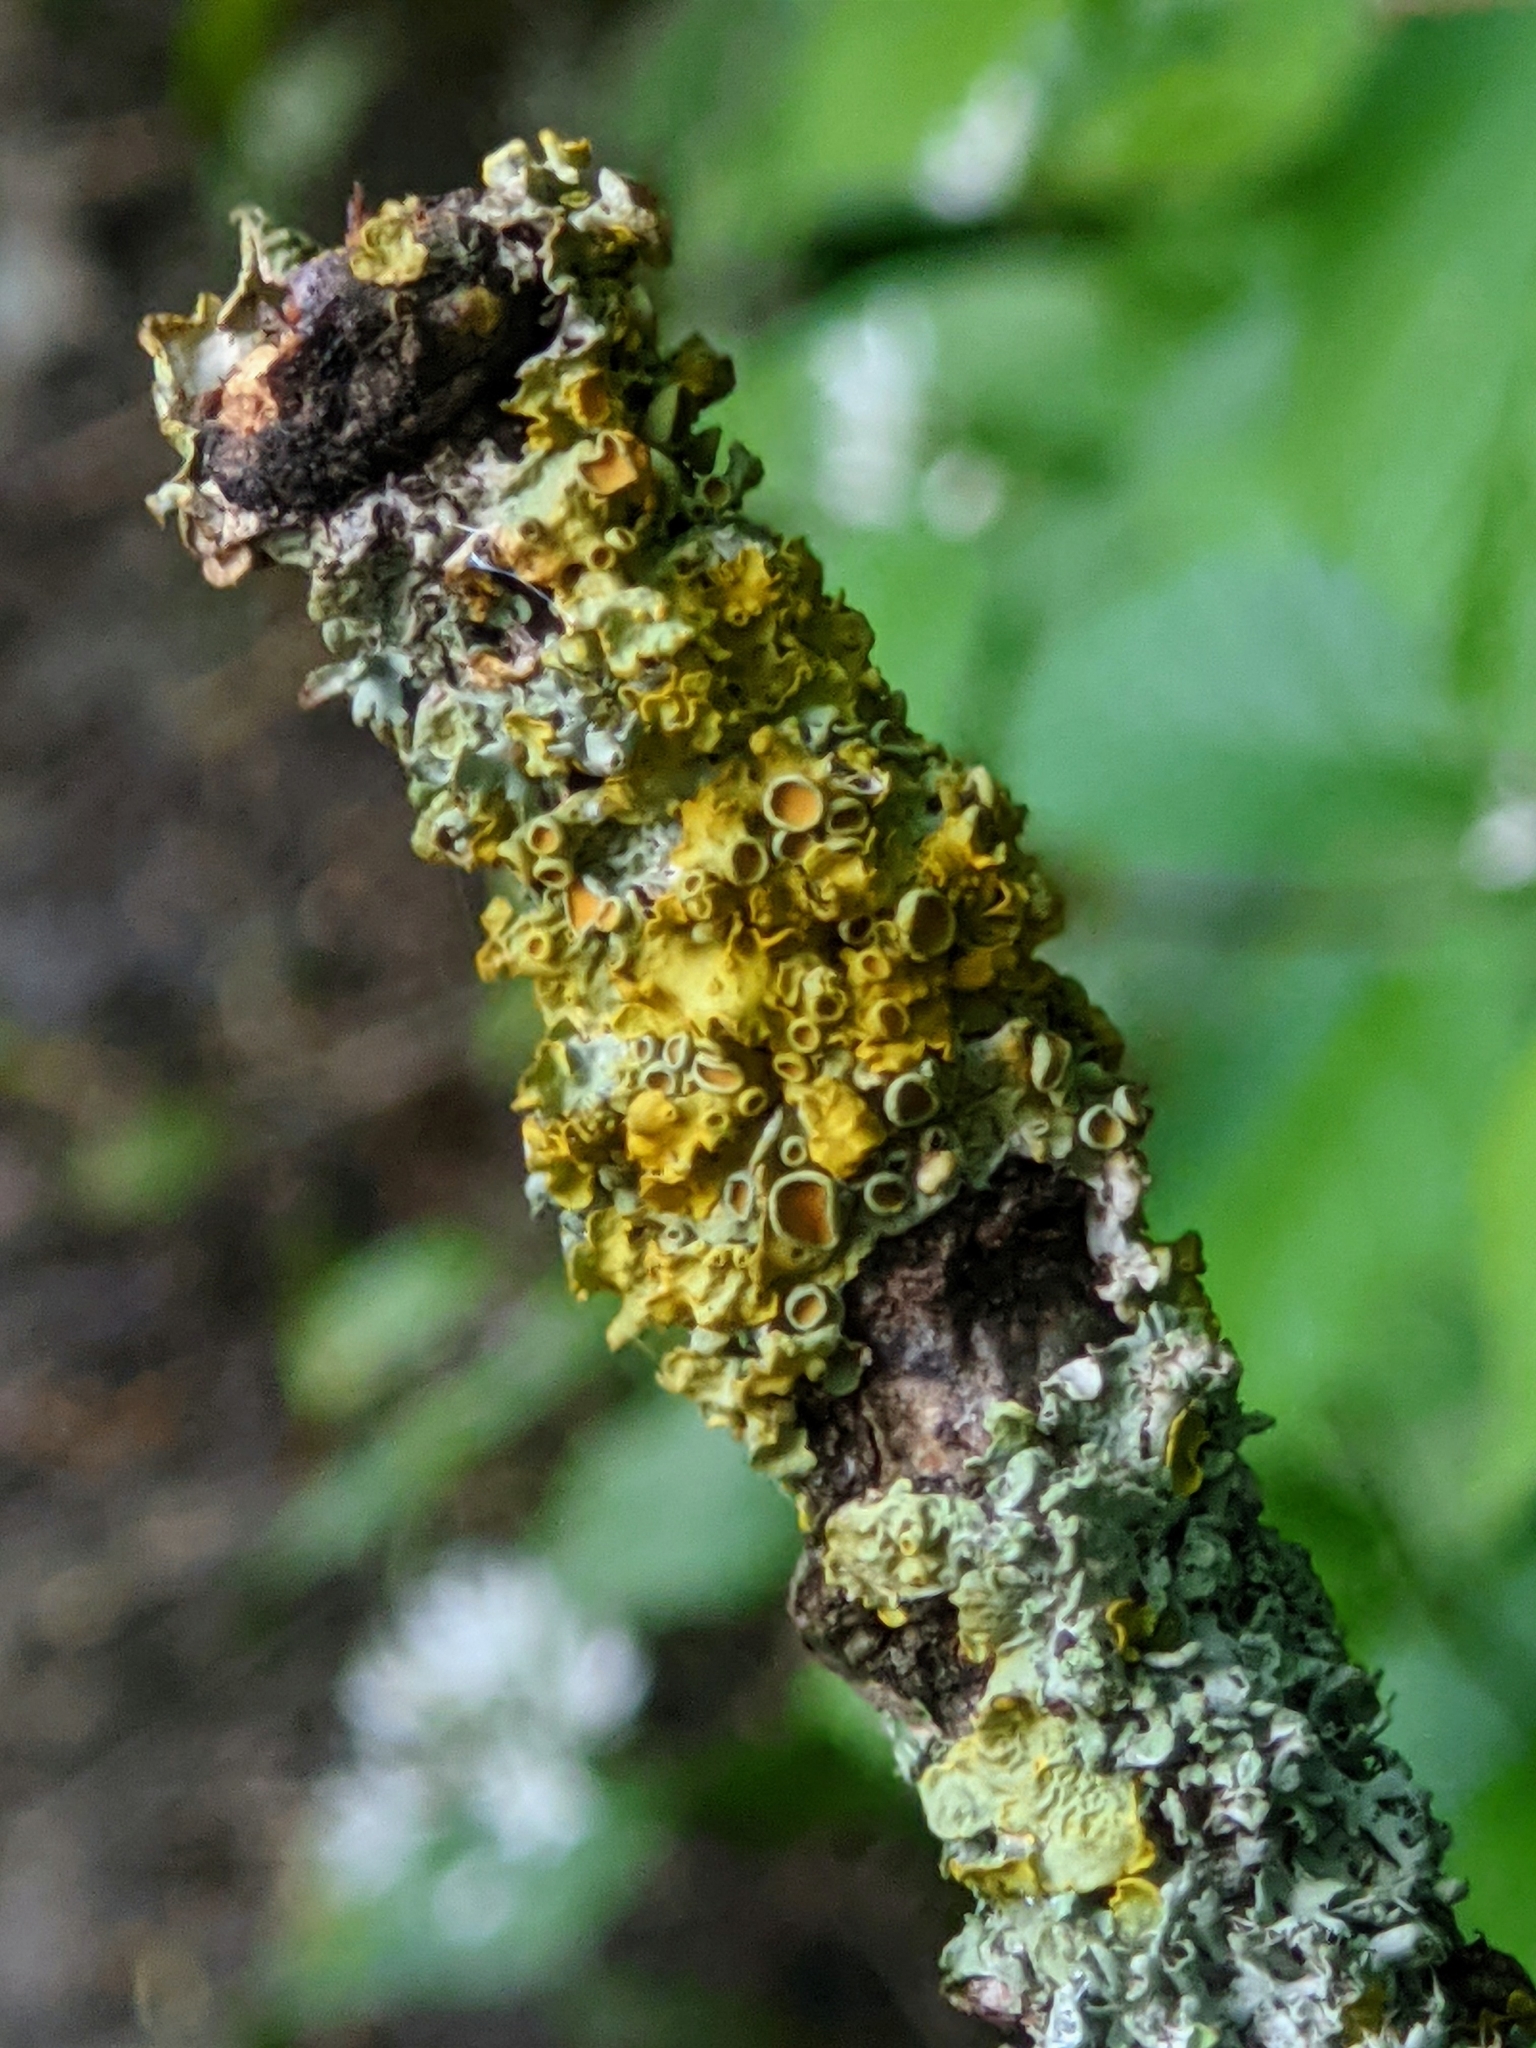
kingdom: Fungi
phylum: Ascomycota
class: Lecanoromycetes
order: Teloschistales
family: Teloschistaceae
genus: Xanthoria
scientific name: Xanthoria parietina
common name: Common orange lichen
